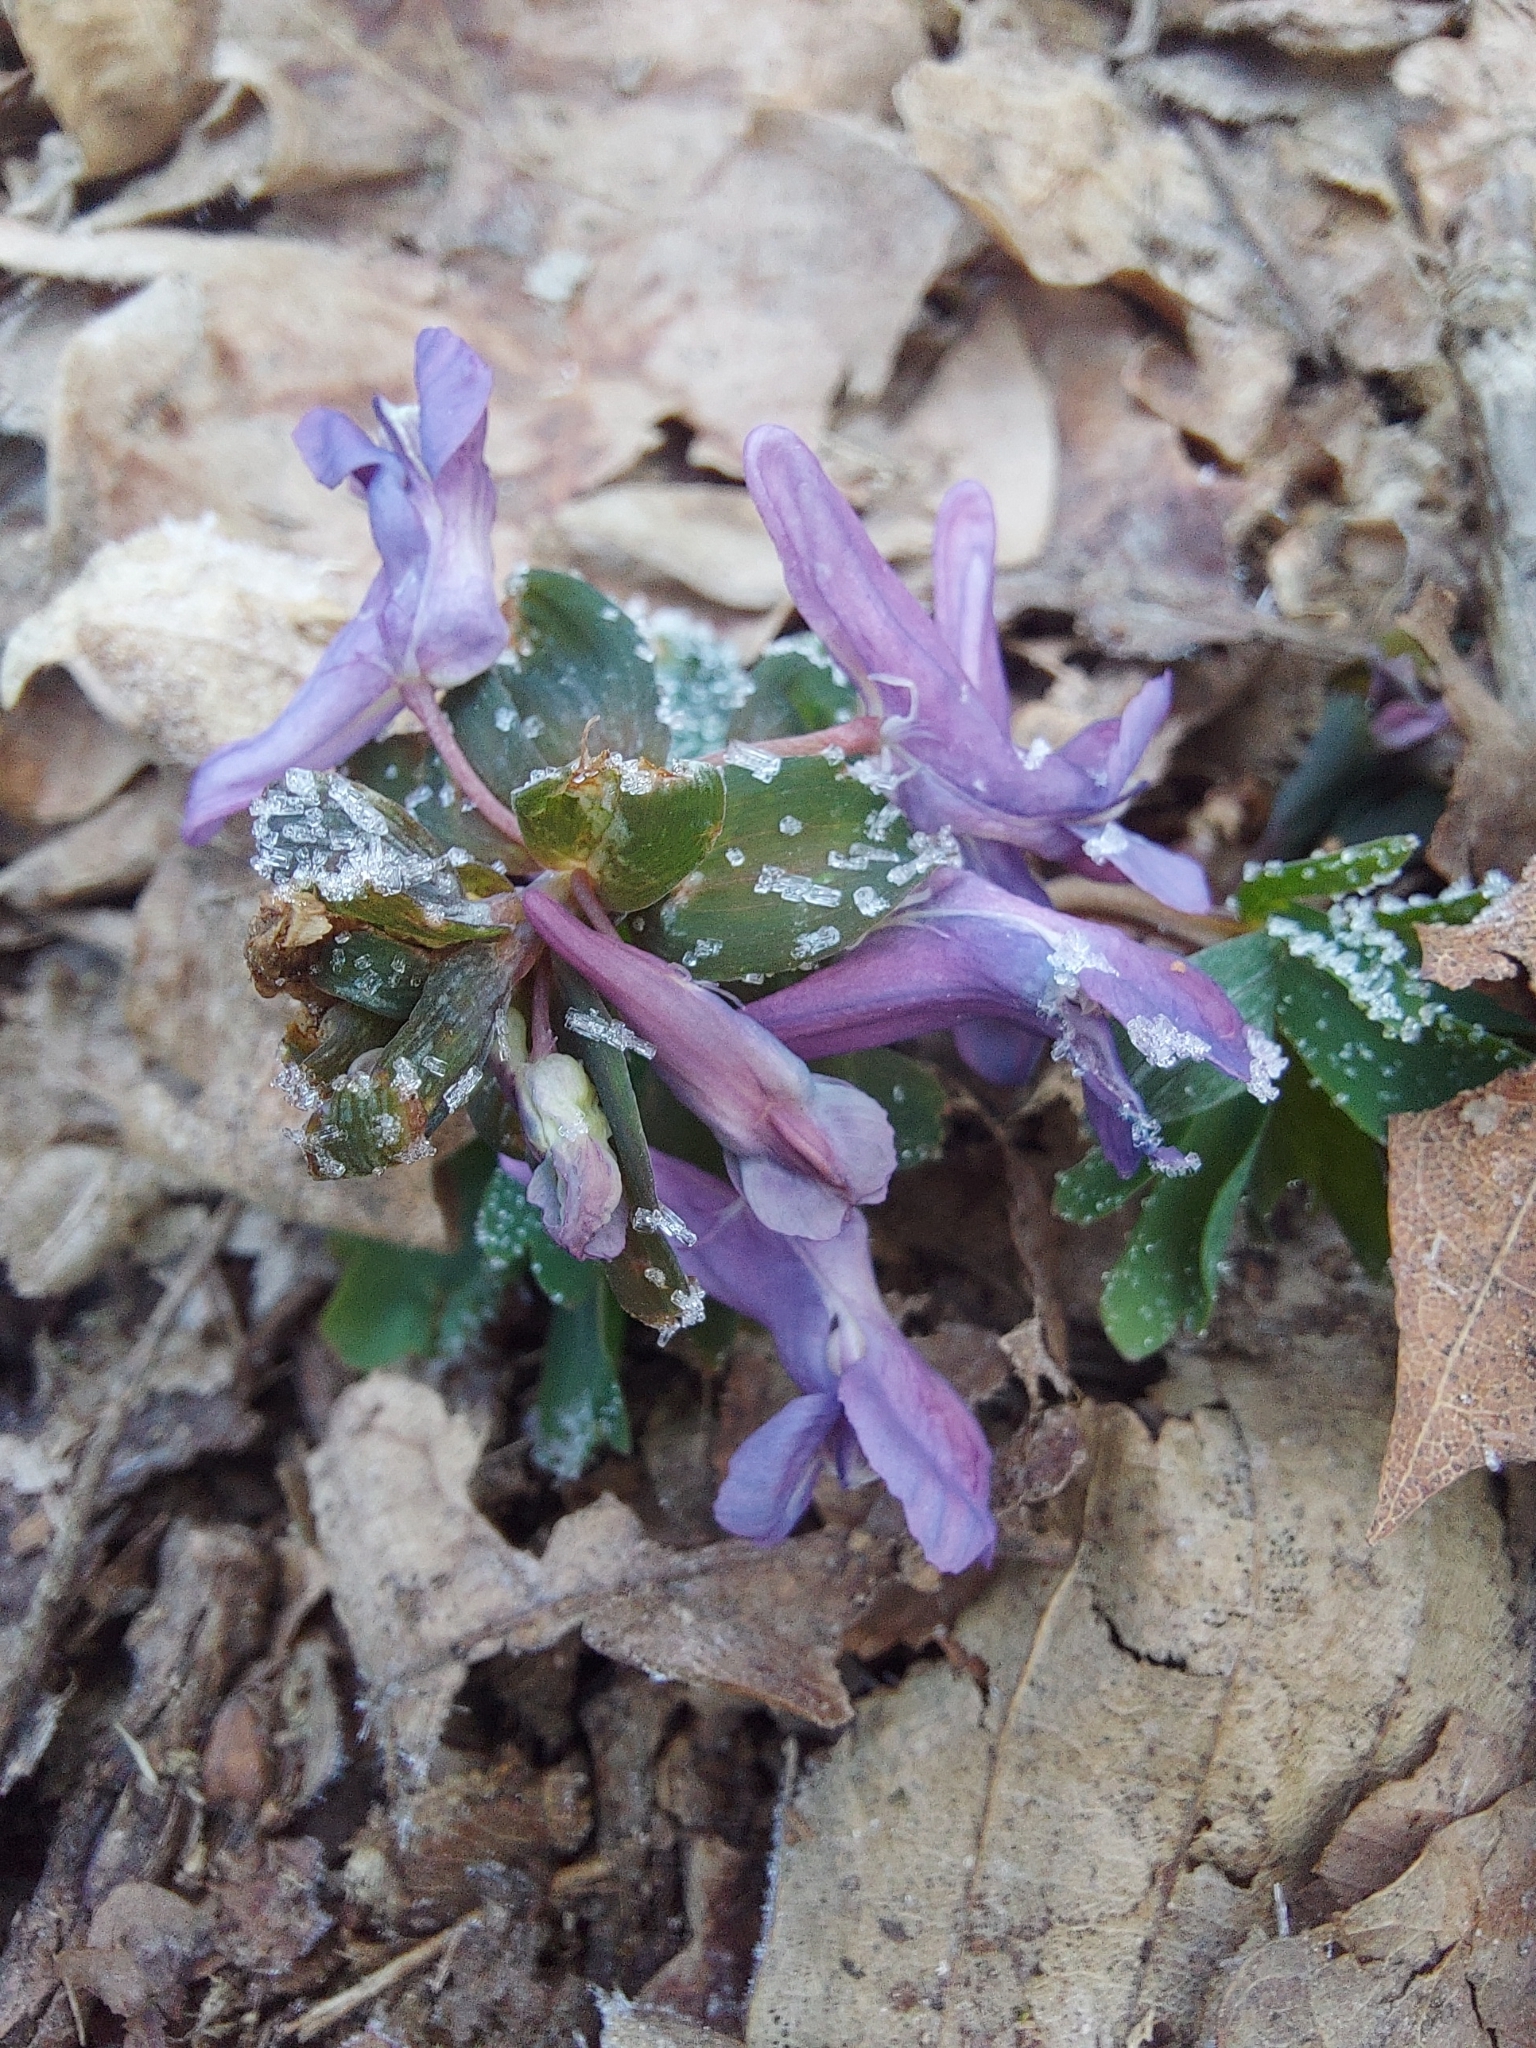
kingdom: Plantae
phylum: Tracheophyta
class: Magnoliopsida
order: Ranunculales
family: Papaveraceae
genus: Corydalis
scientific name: Corydalis cava
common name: Hollowroot
